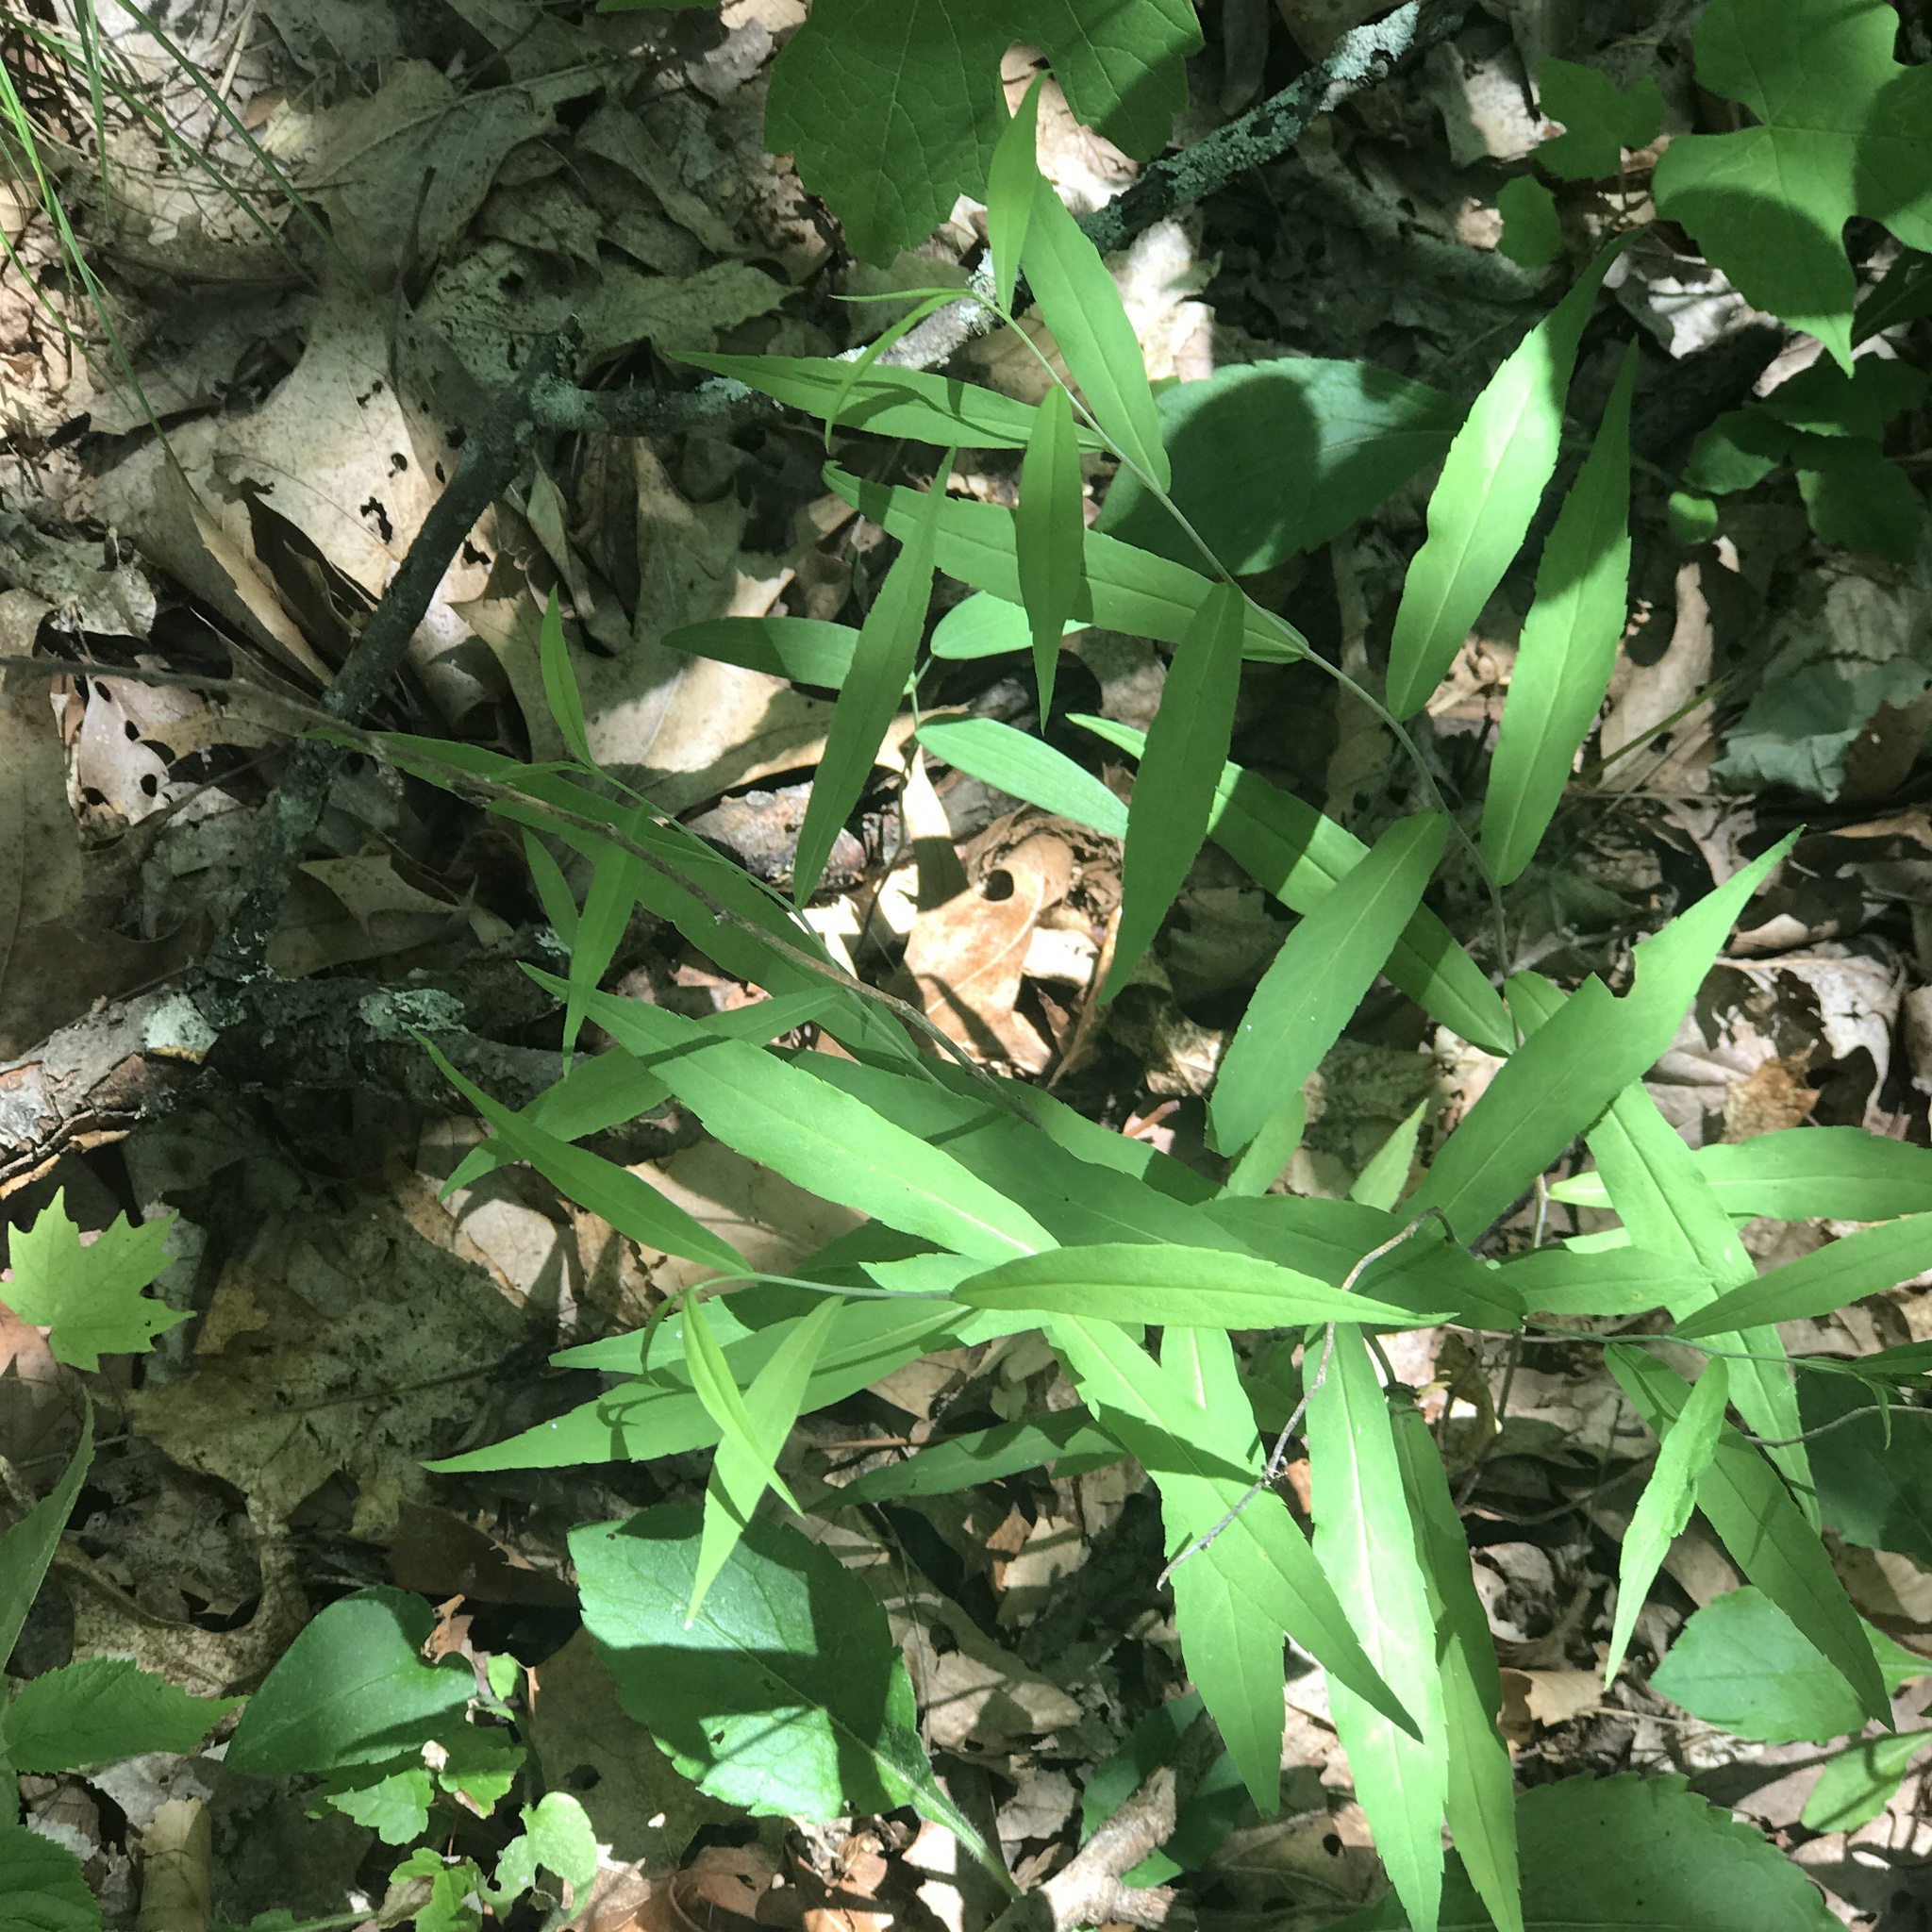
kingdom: Plantae
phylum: Tracheophyta
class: Magnoliopsida
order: Asterales
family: Asteraceae
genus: Solidago
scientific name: Solidago caesia
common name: Woodland goldenrod
